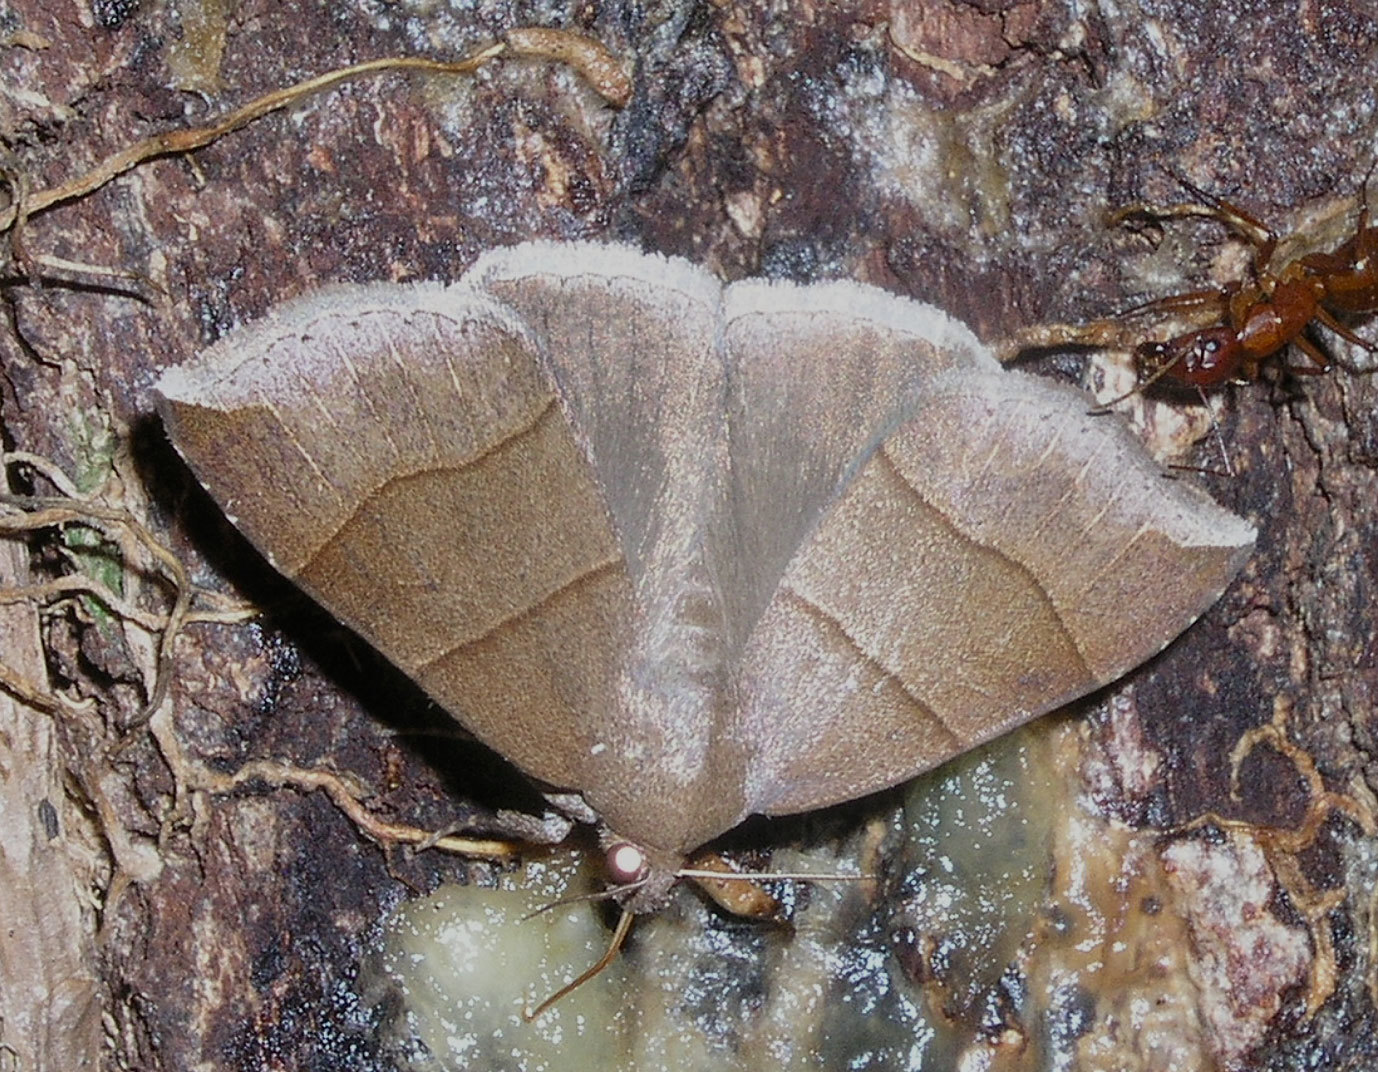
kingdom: Animalia
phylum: Arthropoda
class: Insecta
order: Lepidoptera
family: Erebidae
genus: Parallelia
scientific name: Parallelia bistriaris
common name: Maple looper moth
